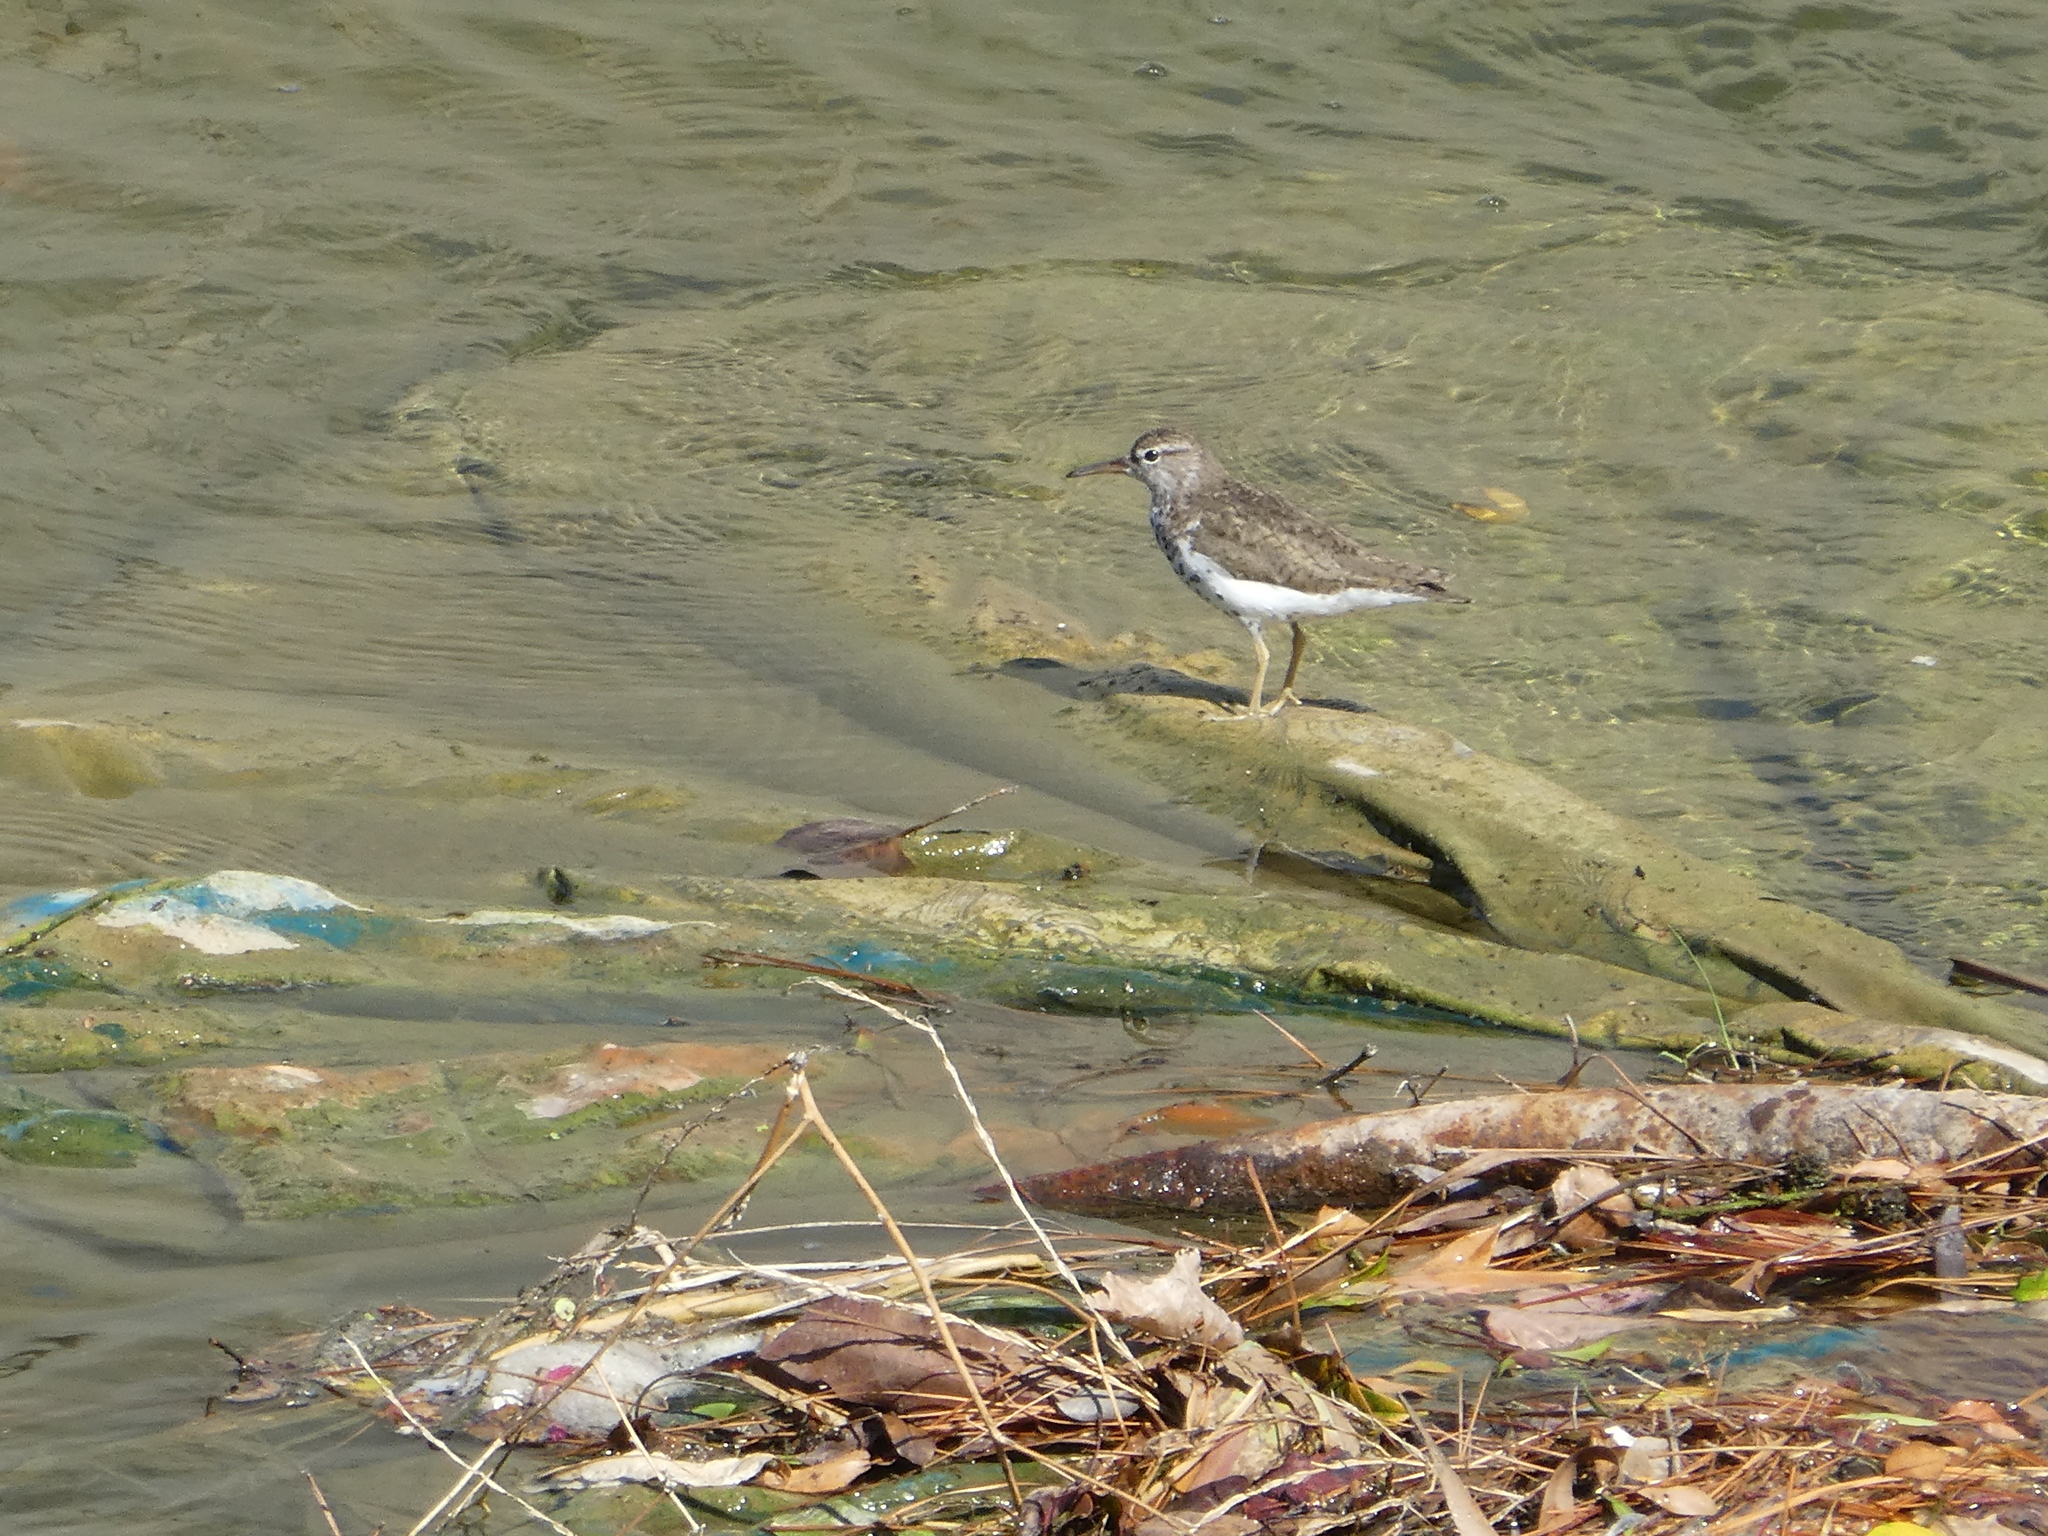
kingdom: Animalia
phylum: Chordata
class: Aves
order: Charadriiformes
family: Scolopacidae
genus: Actitis
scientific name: Actitis macularius
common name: Spotted sandpiper
